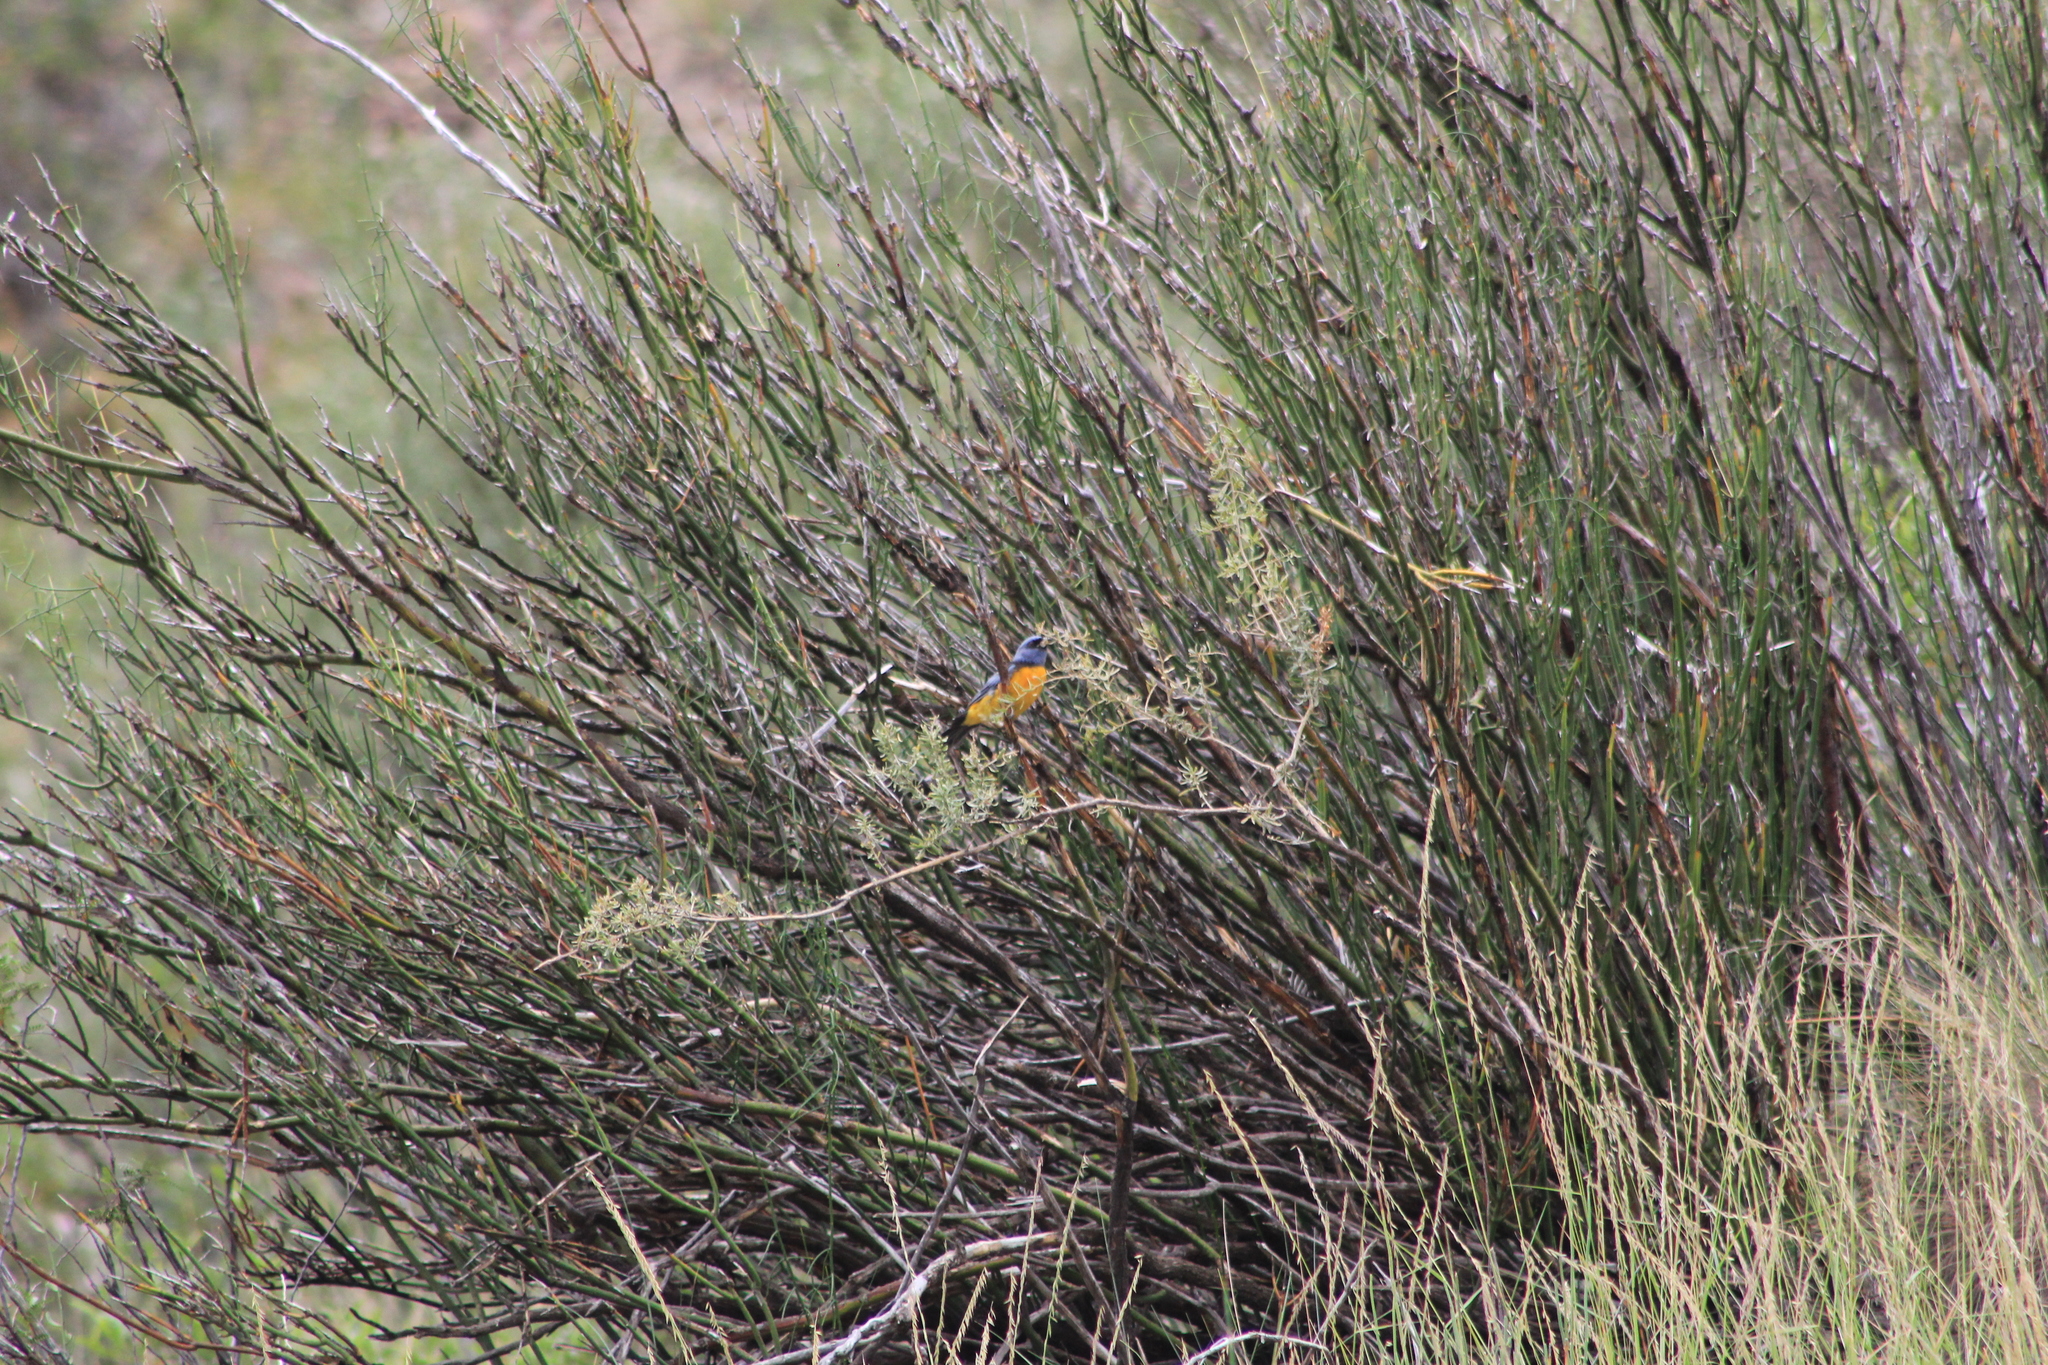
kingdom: Animalia
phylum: Chordata
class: Aves
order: Passeriformes
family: Thraupidae
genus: Rauenia
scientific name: Rauenia bonariensis
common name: Blue-and-yellow tanager
